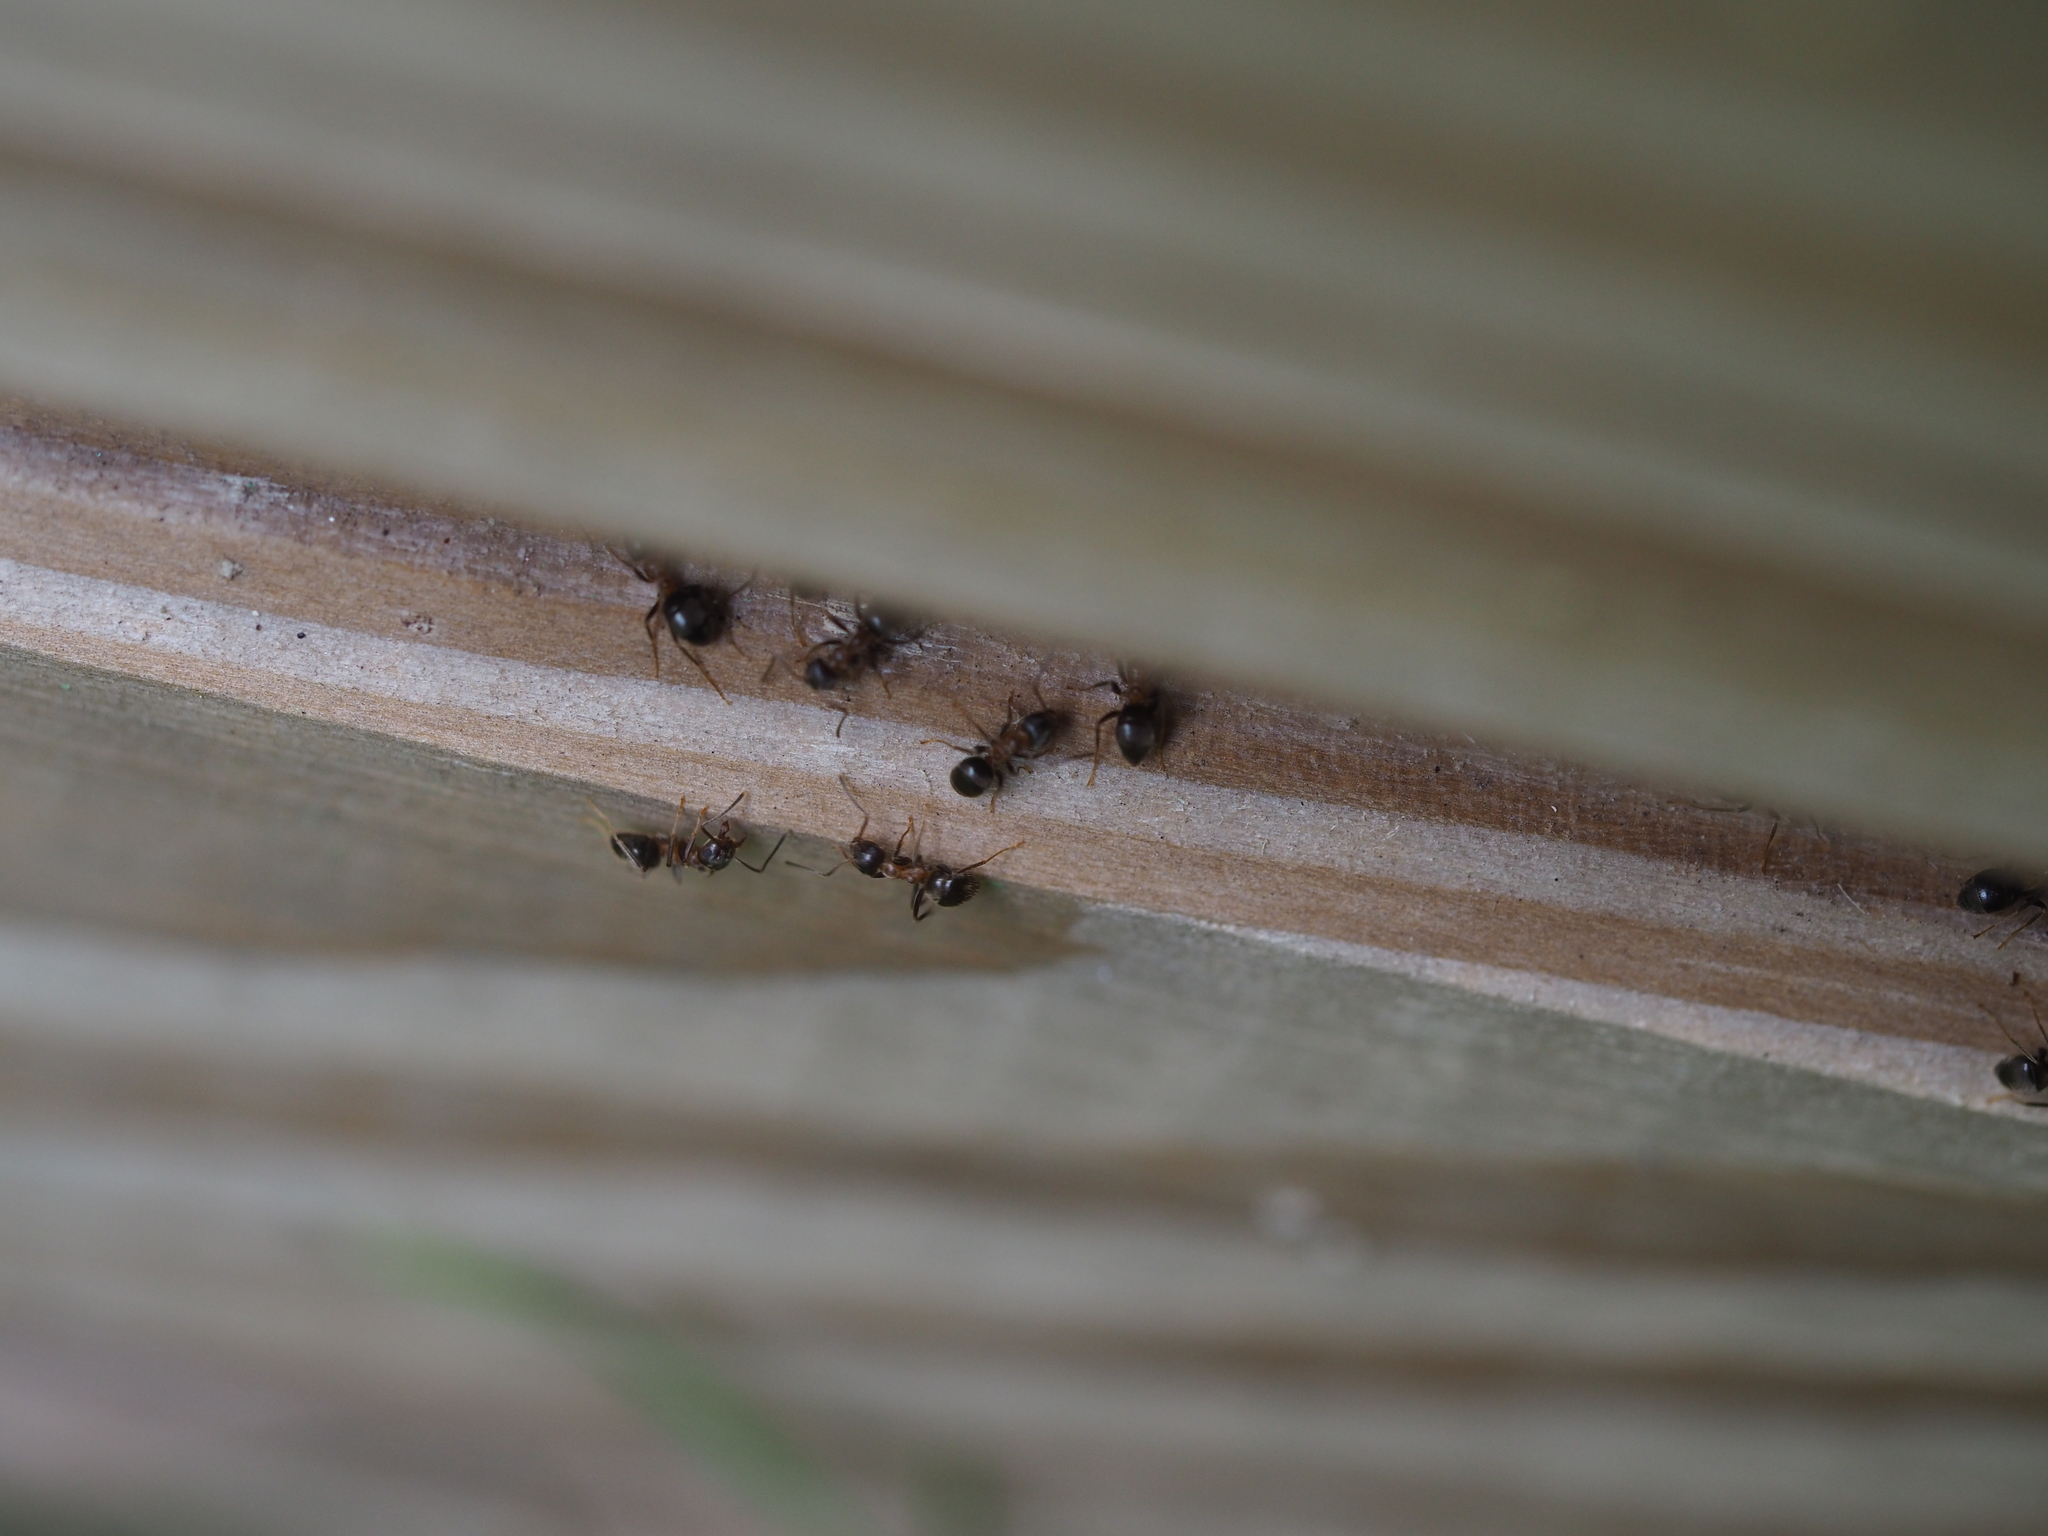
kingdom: Animalia
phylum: Arthropoda
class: Insecta
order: Hymenoptera
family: Formicidae
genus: Lasius
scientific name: Lasius emarginatus
